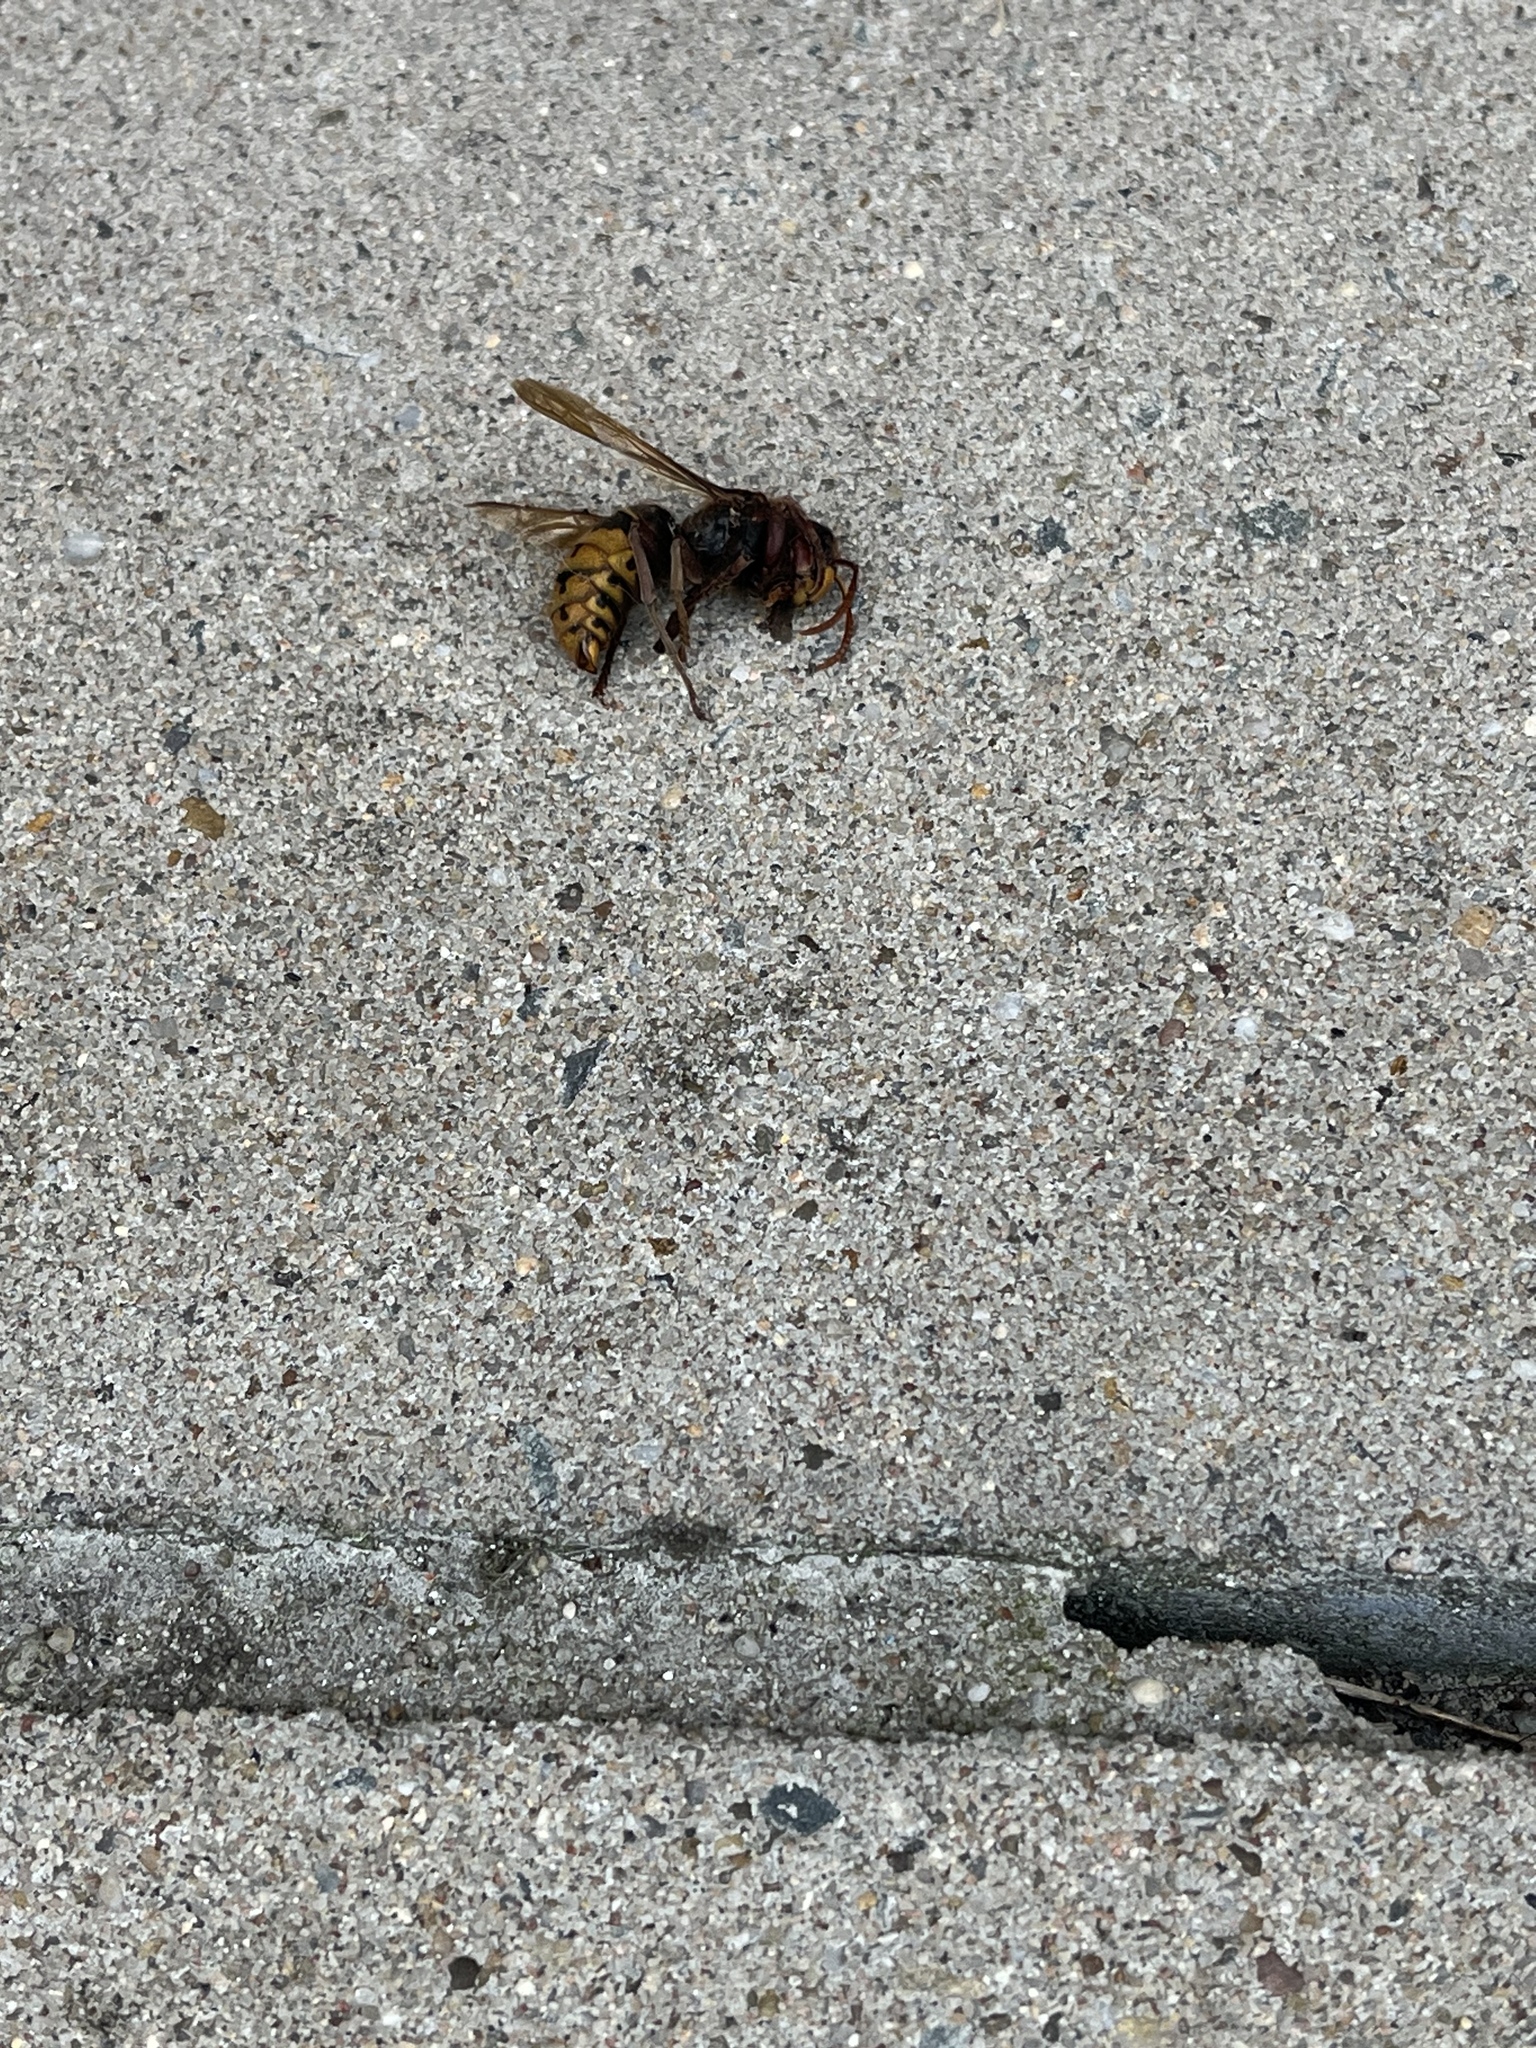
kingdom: Animalia
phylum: Arthropoda
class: Insecta
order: Hymenoptera
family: Vespidae
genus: Vespa
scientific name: Vespa crabro
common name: Hornet
